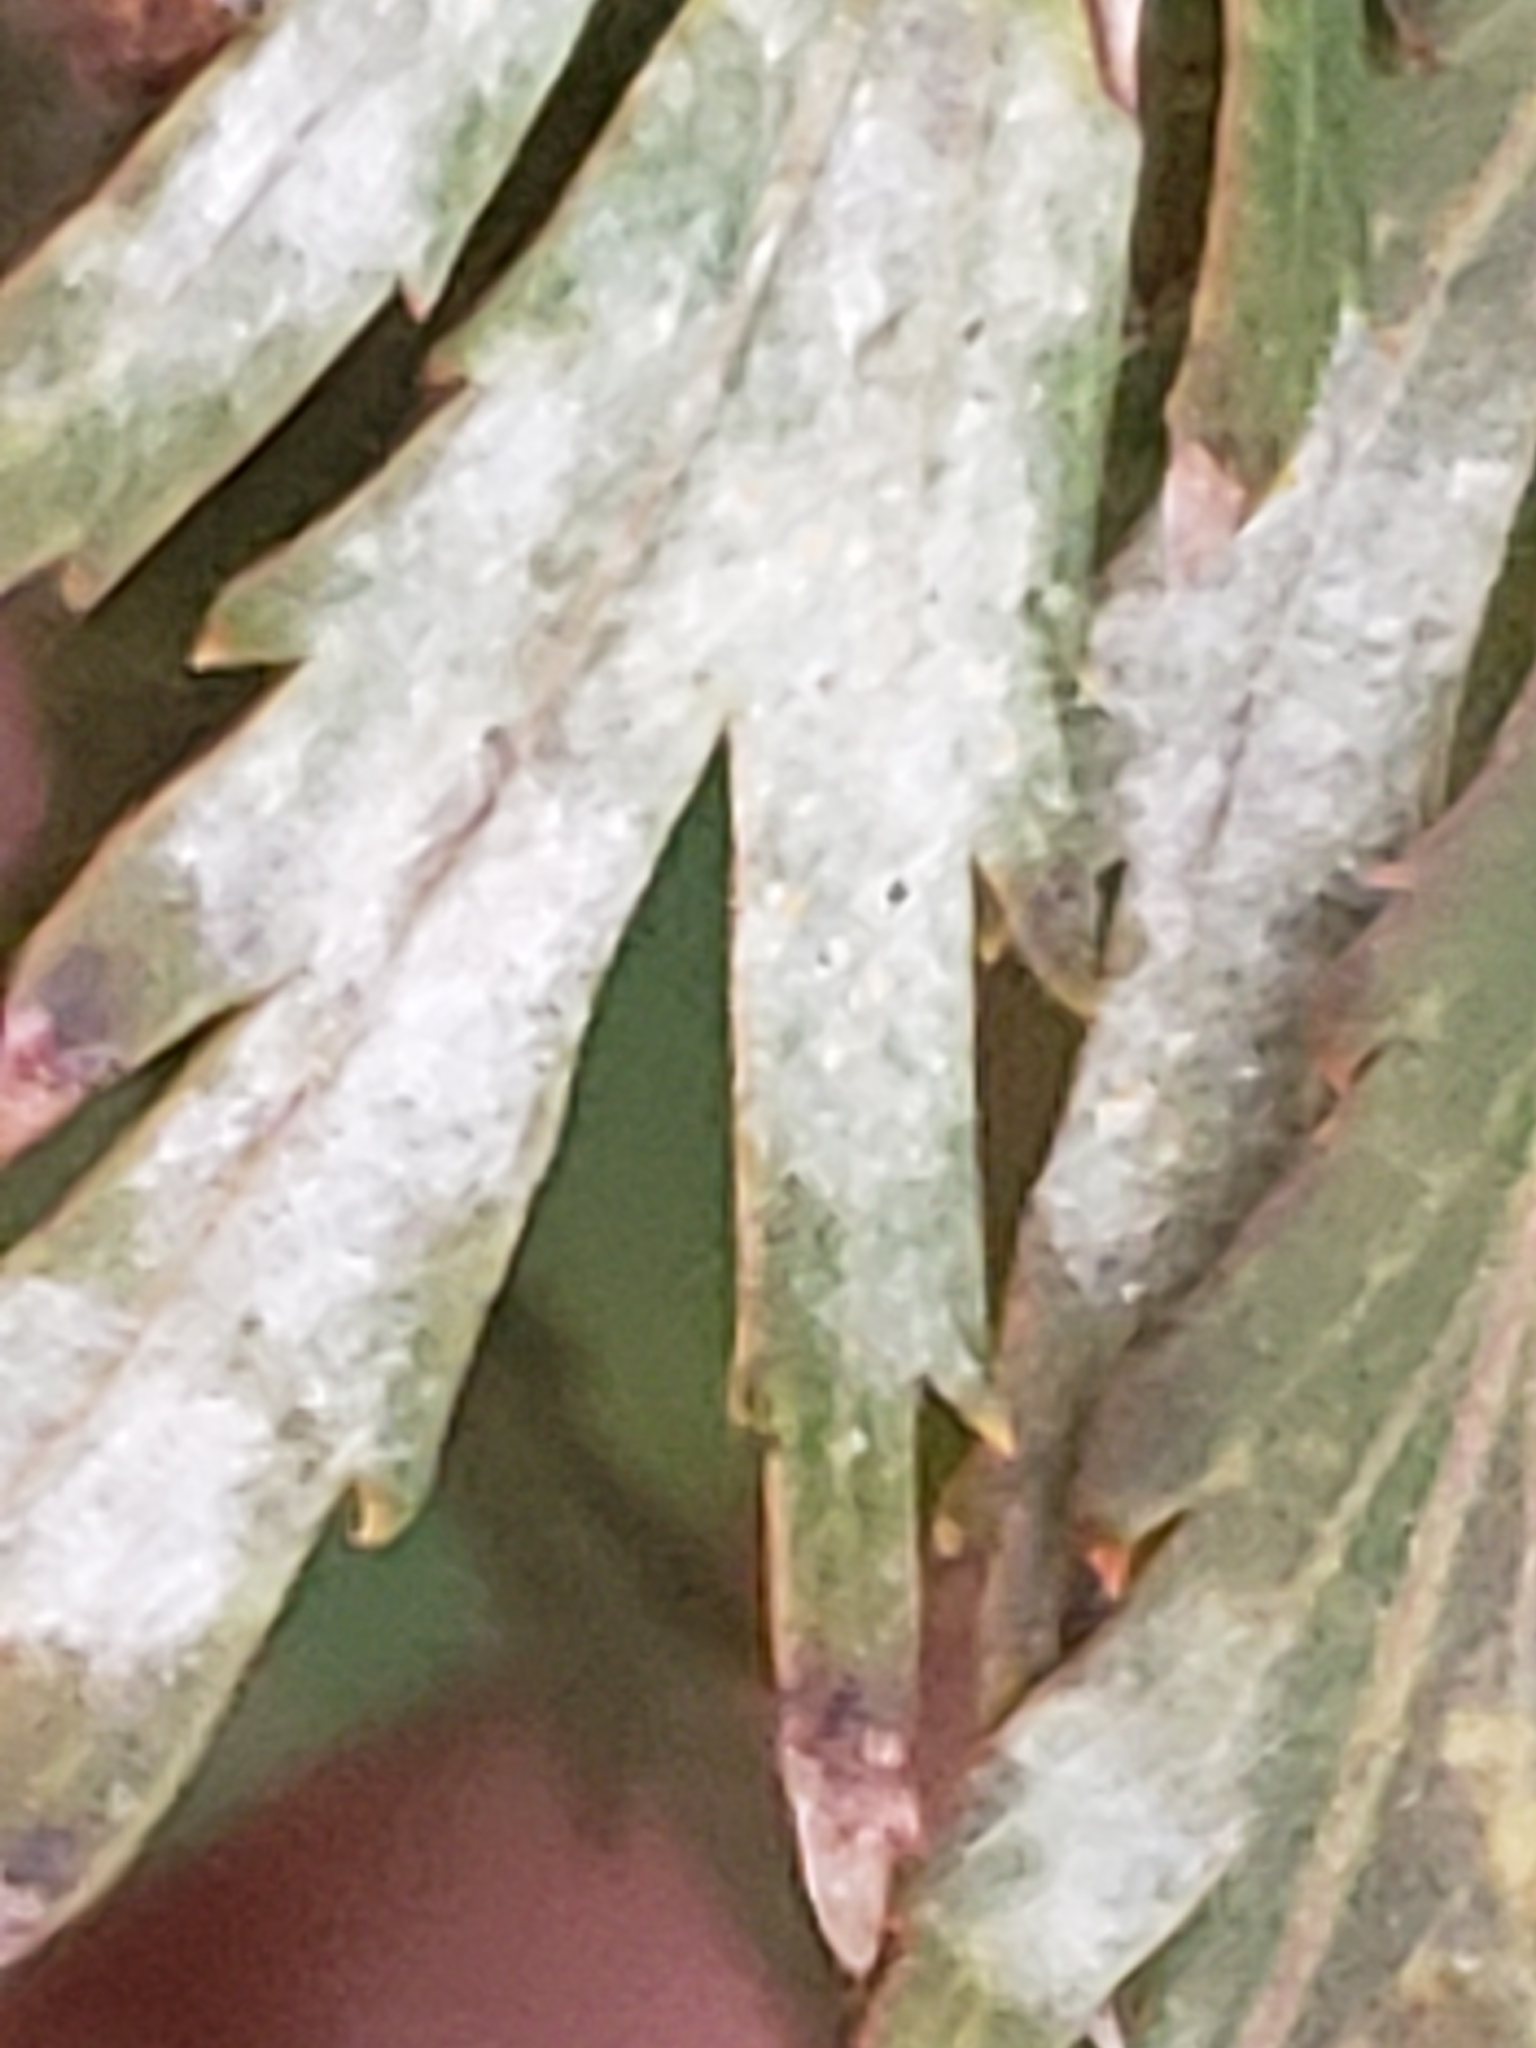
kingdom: Fungi
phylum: Ascomycota
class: Leotiomycetes
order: Helotiales
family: Erysiphaceae
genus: Sawadaea
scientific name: Sawadaea polyfida
